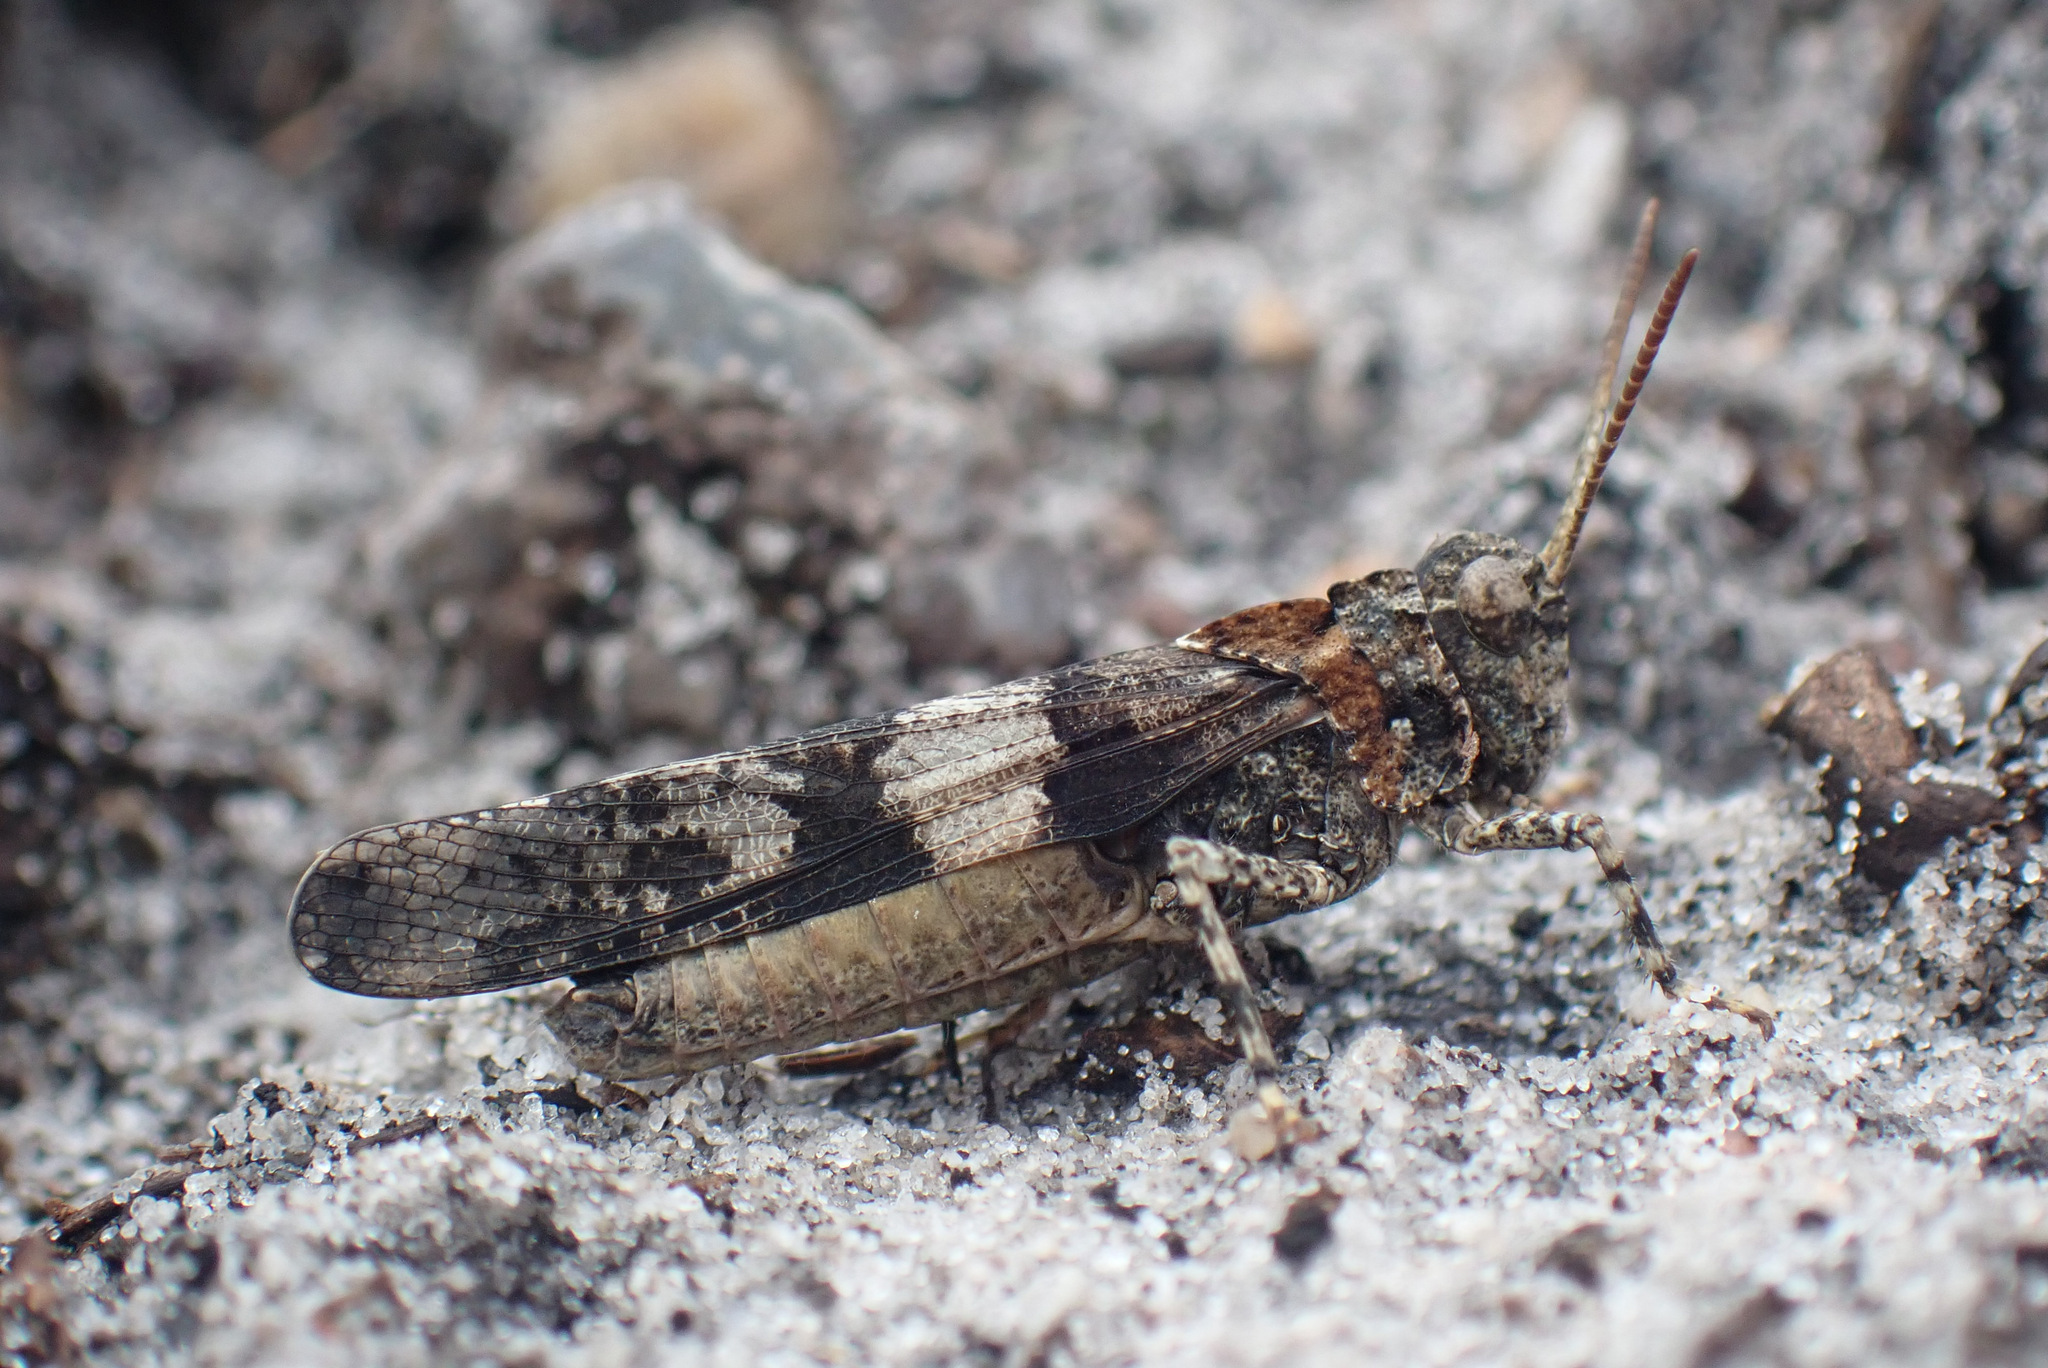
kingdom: Animalia
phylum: Arthropoda
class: Insecta
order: Orthoptera
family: Acrididae
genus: Oedipoda
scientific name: Oedipoda caerulescens
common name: Blue-winged grasshopper
